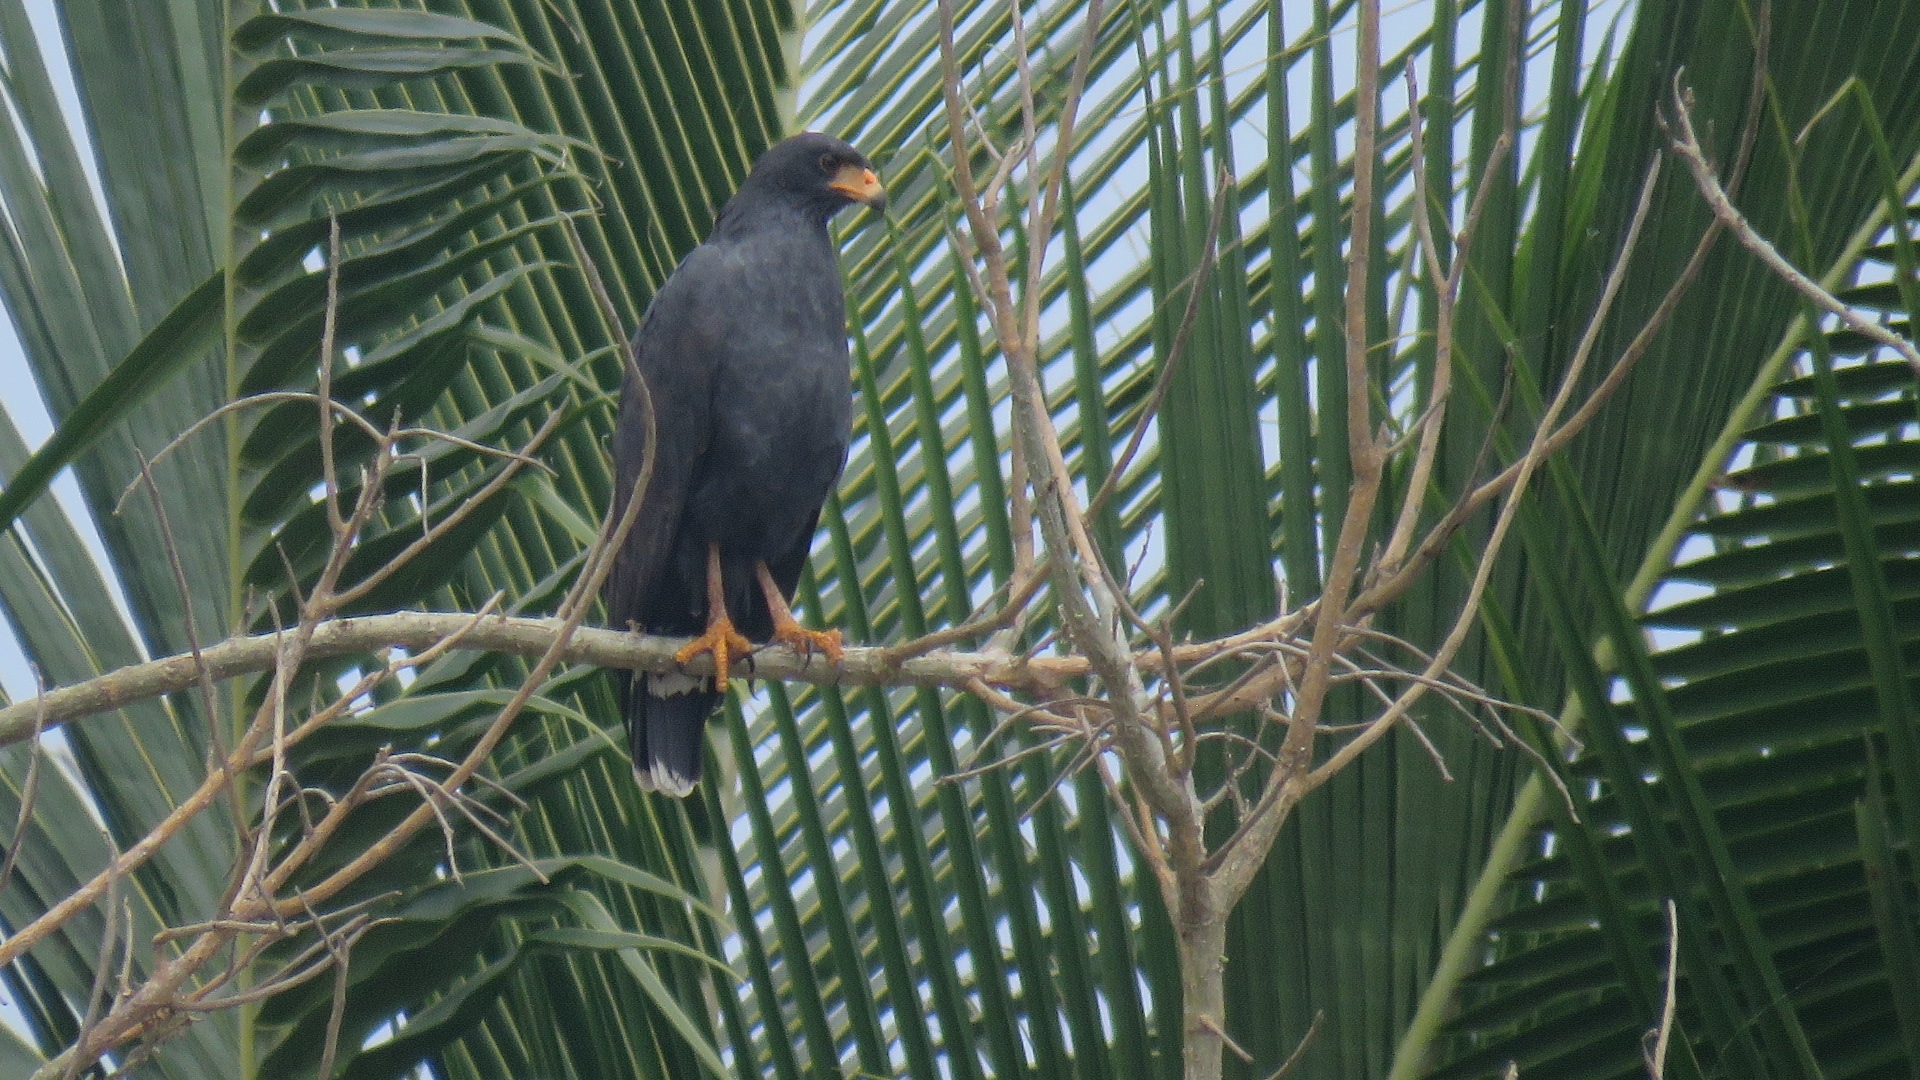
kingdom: Animalia
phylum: Chordata
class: Aves
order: Accipitriformes
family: Accipitridae
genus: Buteogallus
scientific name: Buteogallus anthracinus
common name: Common black hawk
